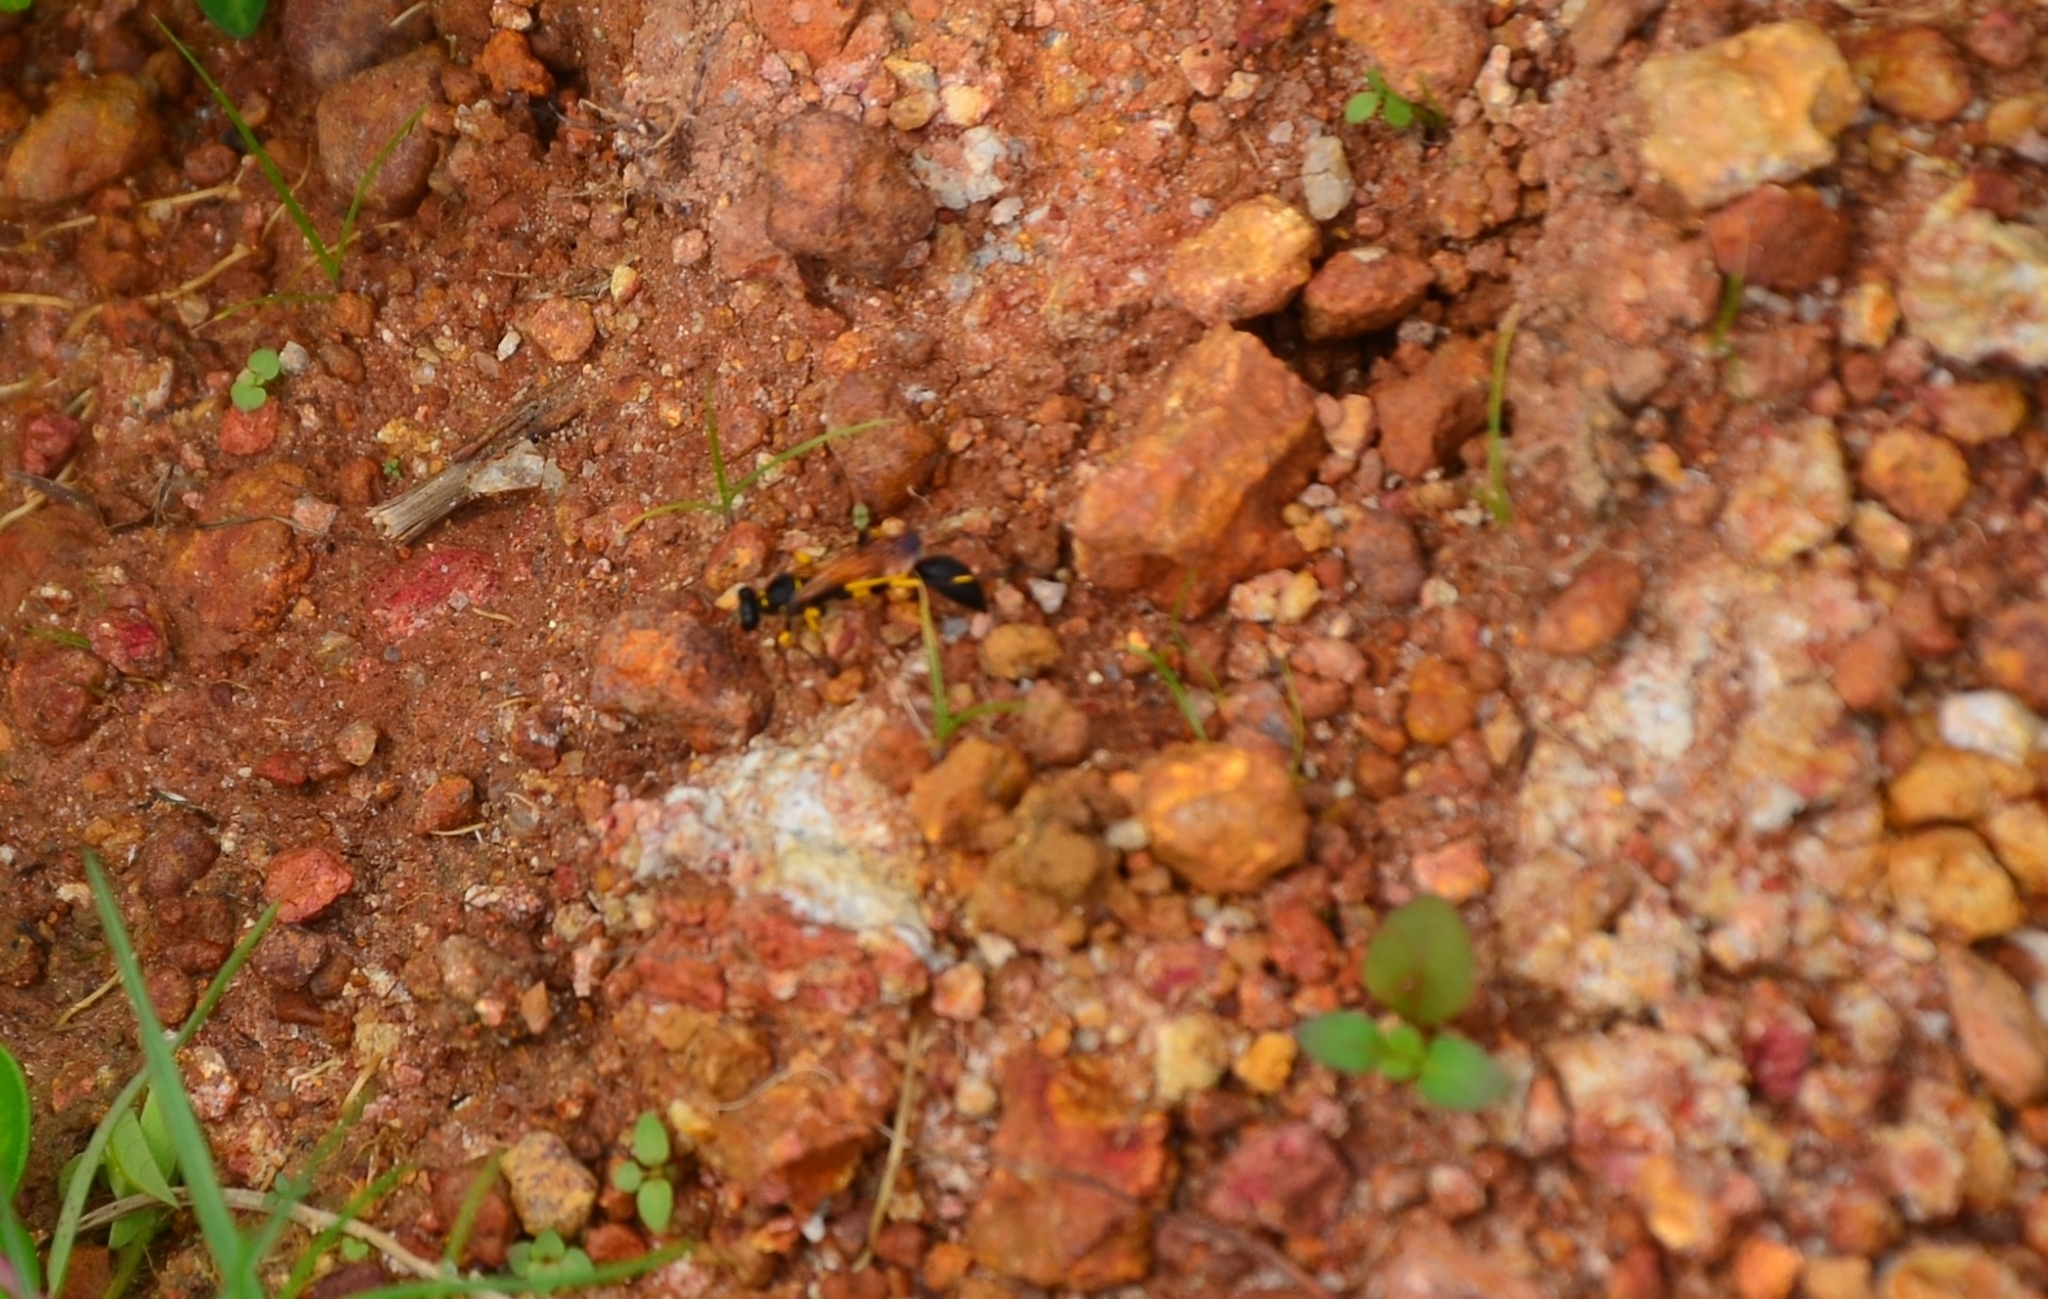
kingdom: Animalia
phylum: Arthropoda
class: Insecta
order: Hymenoptera
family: Sphecidae
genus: Sceliphron
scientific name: Sceliphron madraspatanum
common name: Mud dauber
